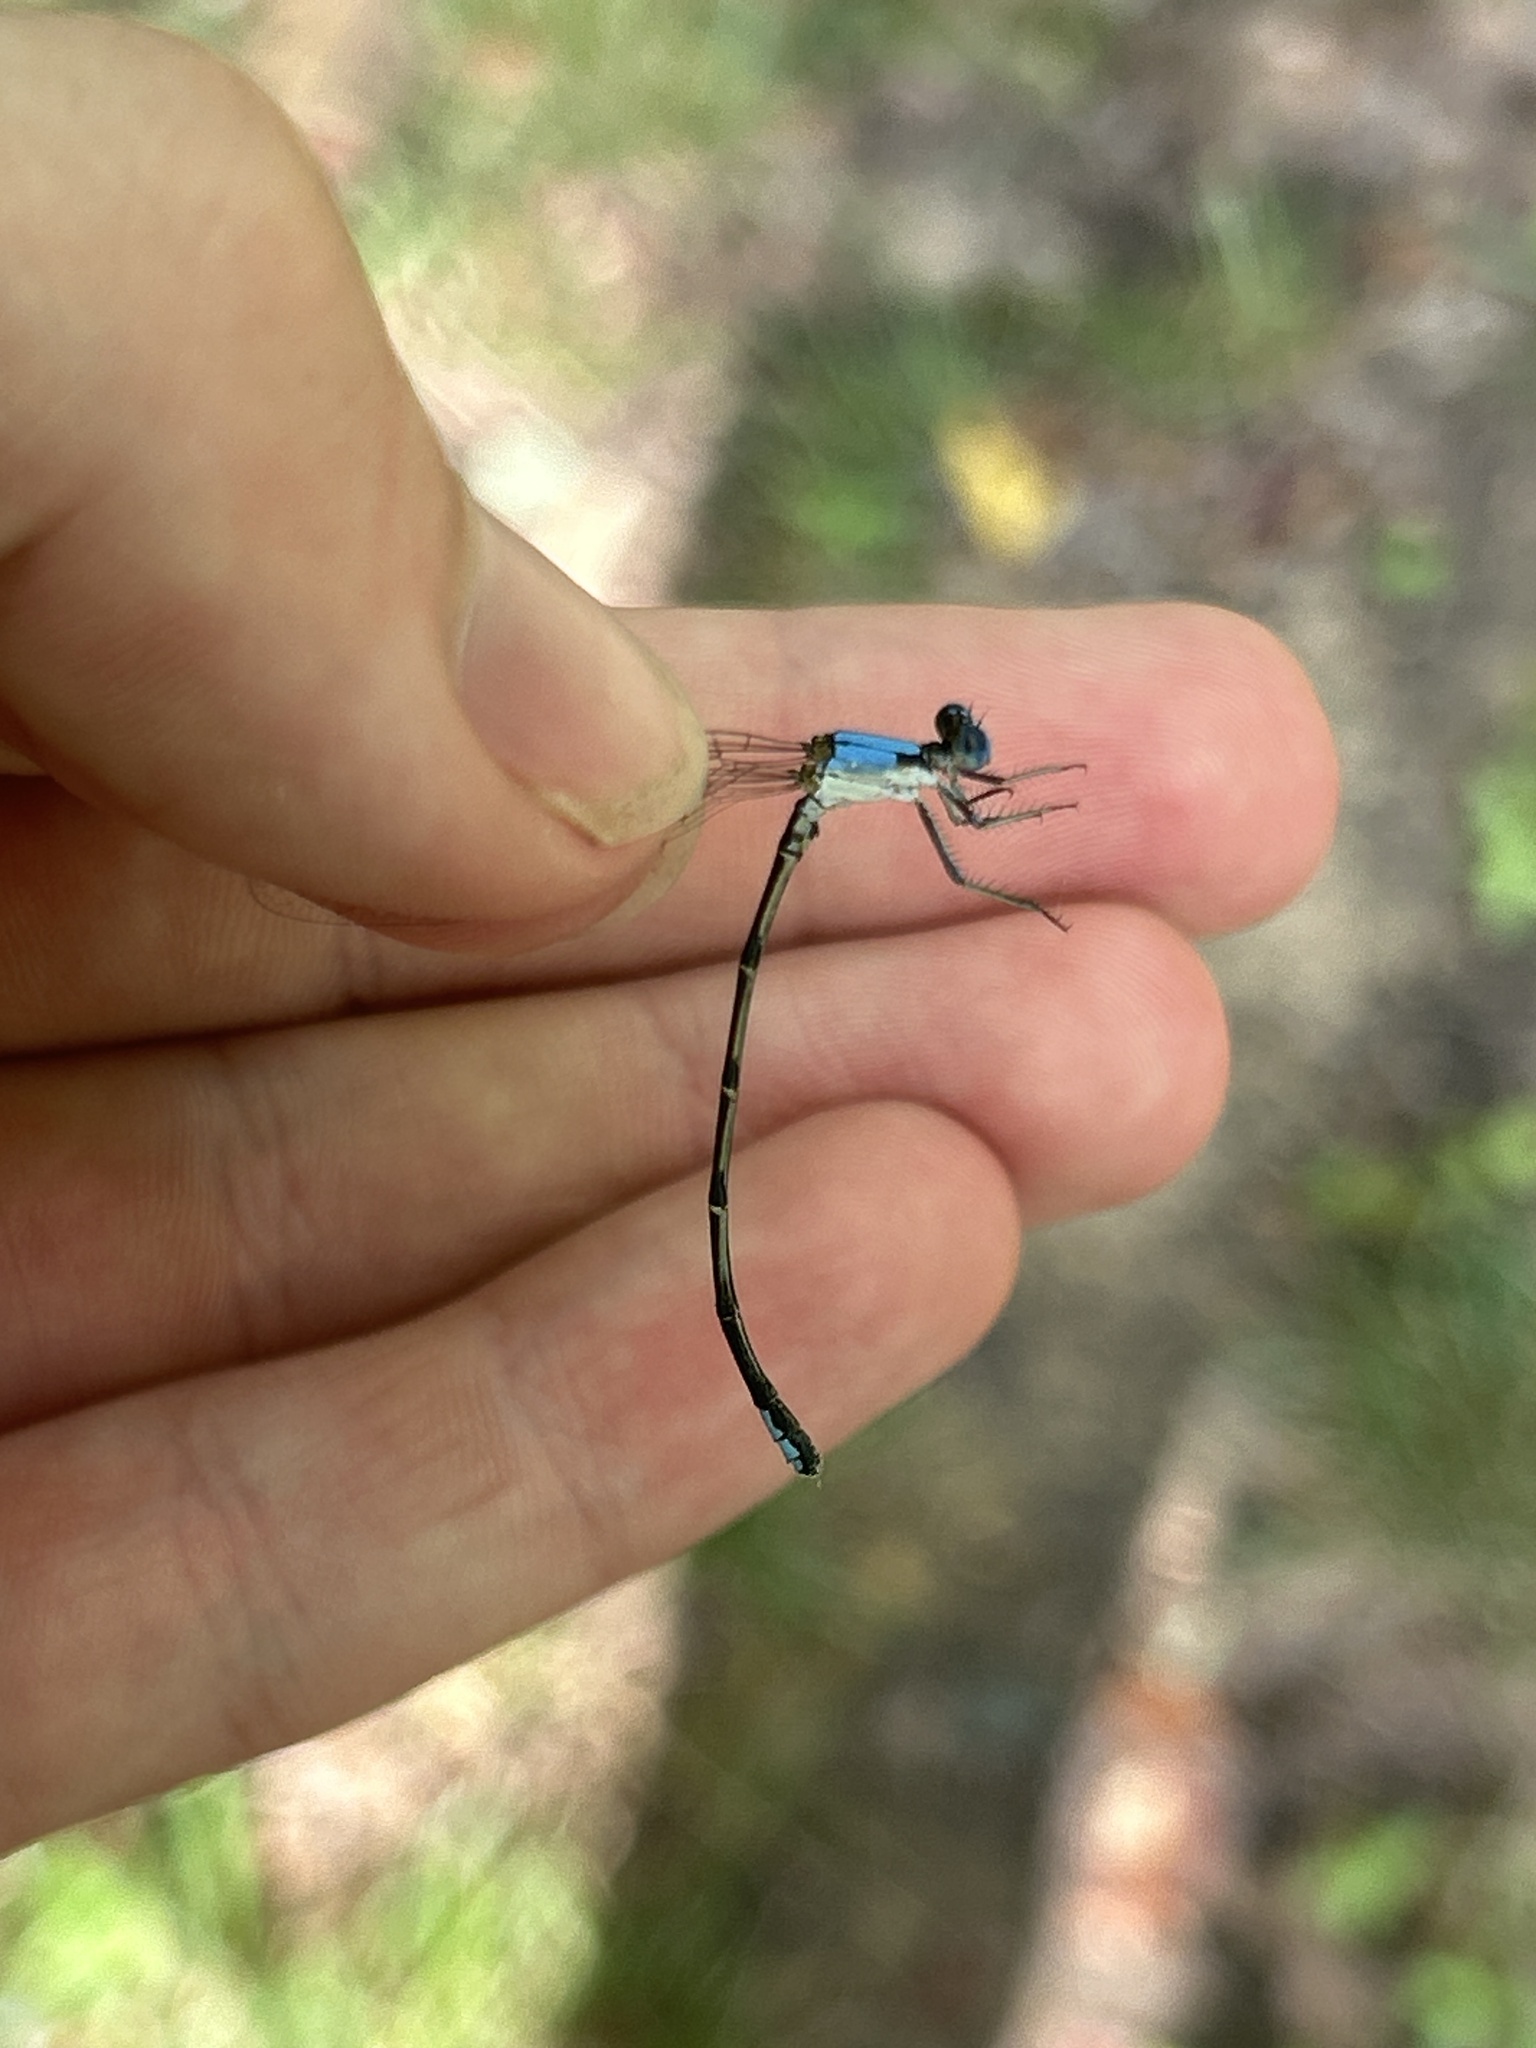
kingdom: Animalia
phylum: Arthropoda
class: Insecta
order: Odonata
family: Coenagrionidae
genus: Argia
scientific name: Argia apicalis
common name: Blue-fronted dancer
